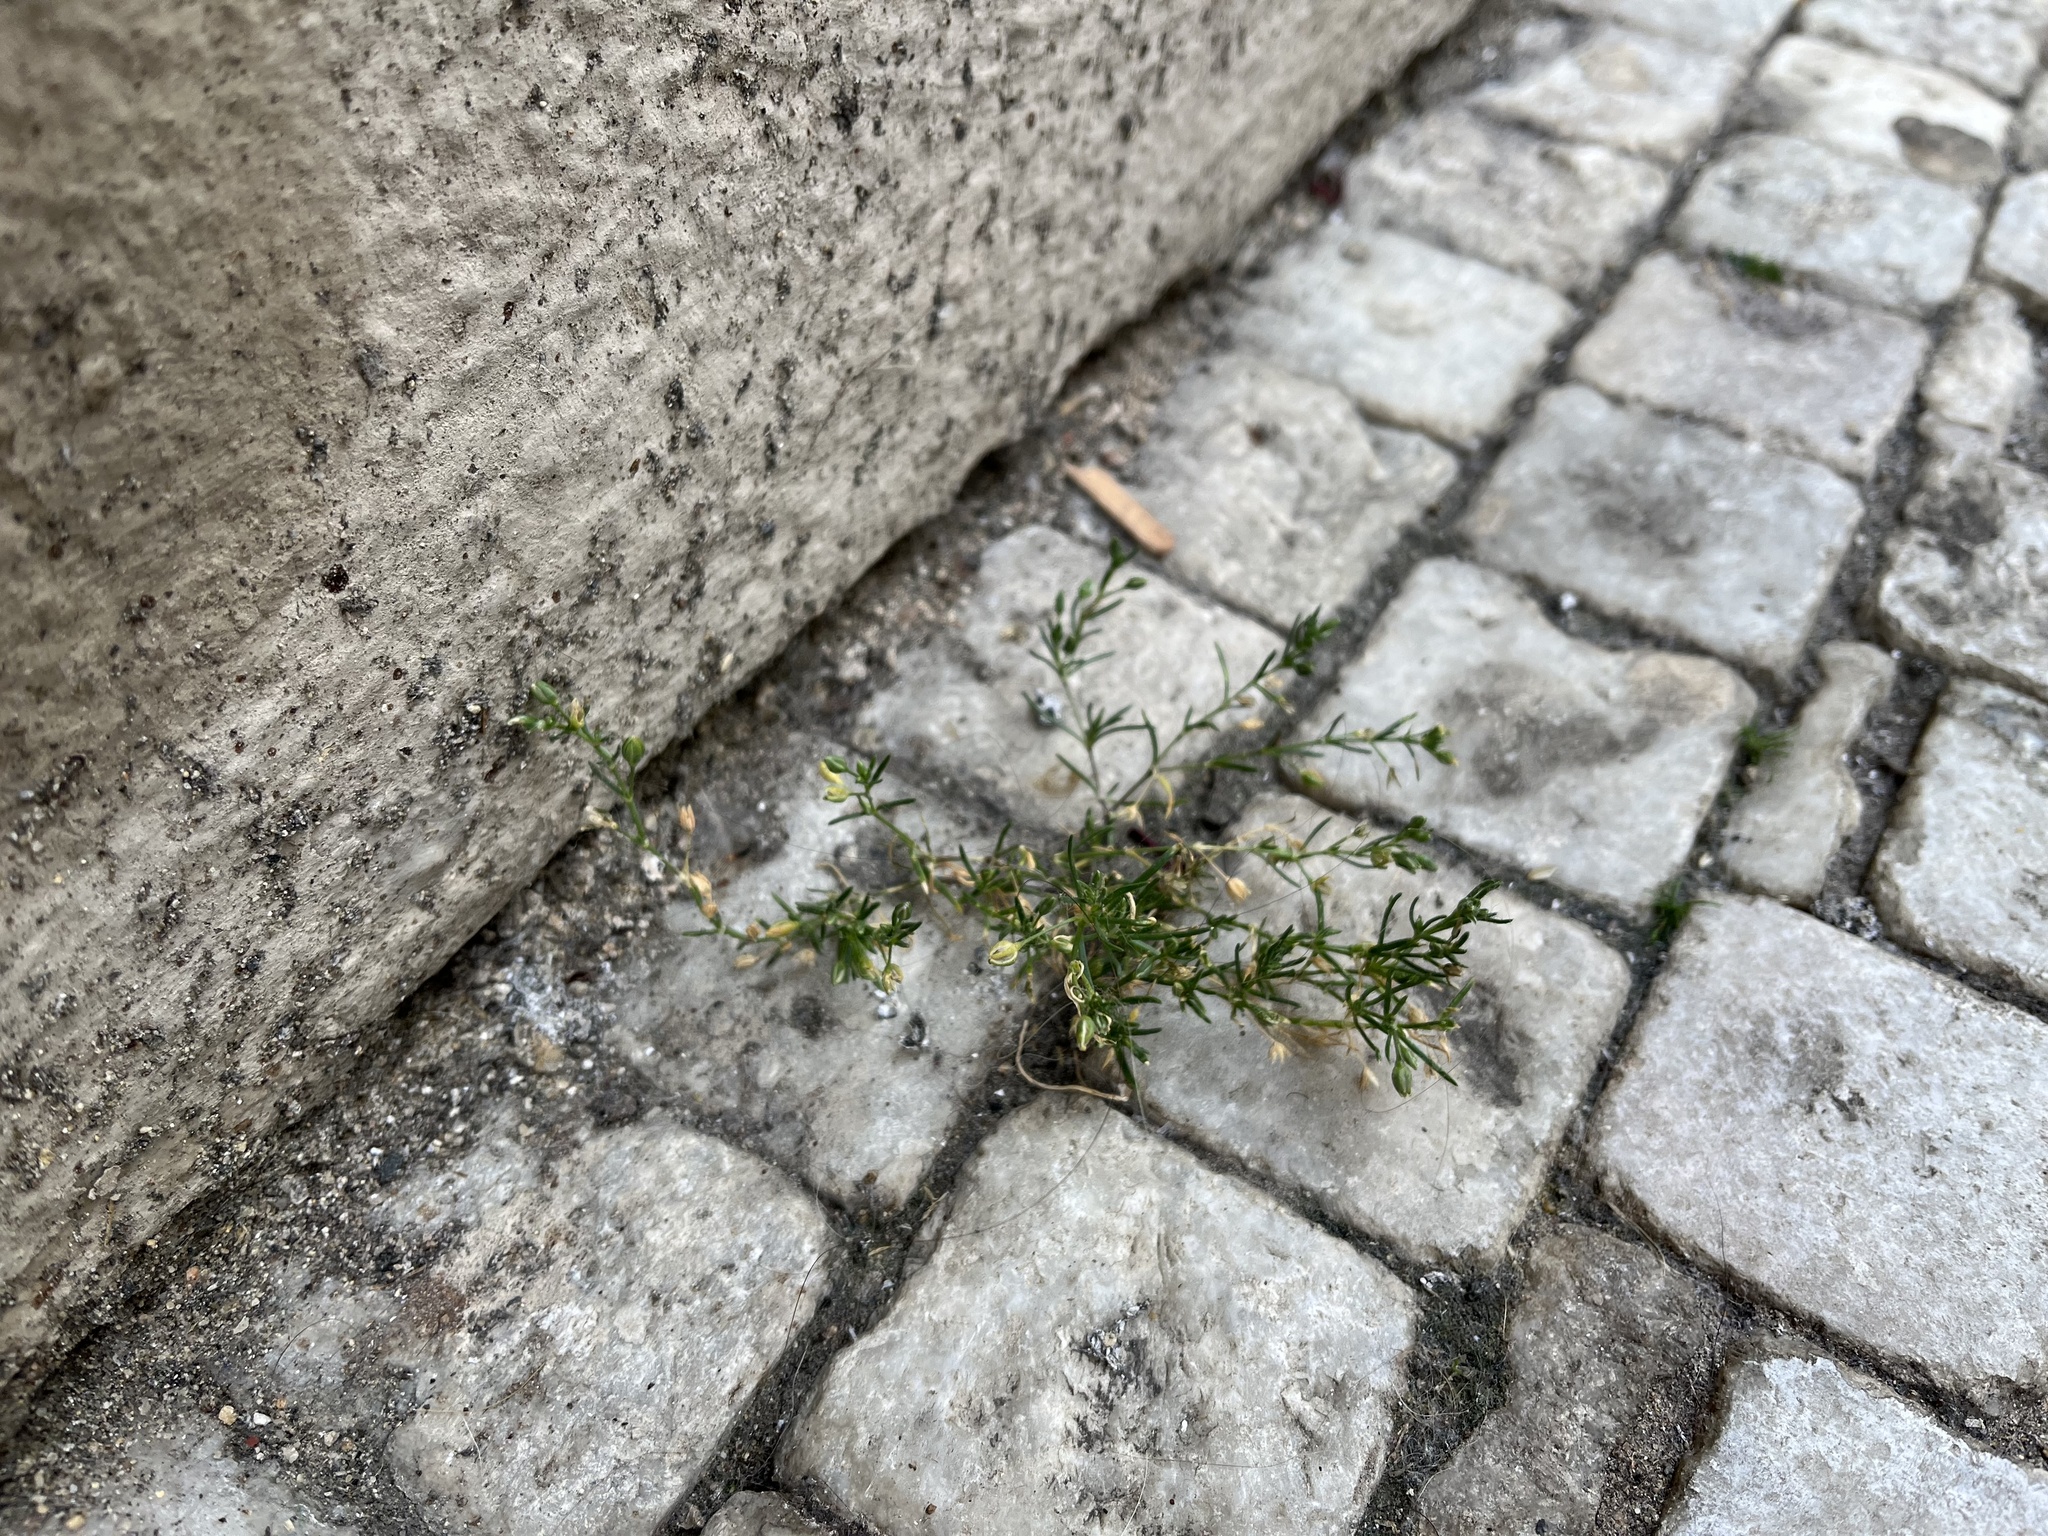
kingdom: Plantae
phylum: Tracheophyta
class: Magnoliopsida
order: Caryophyllales
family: Caryophyllaceae
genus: Spergularia
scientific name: Spergularia marina
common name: Lesser sea-spurrey
